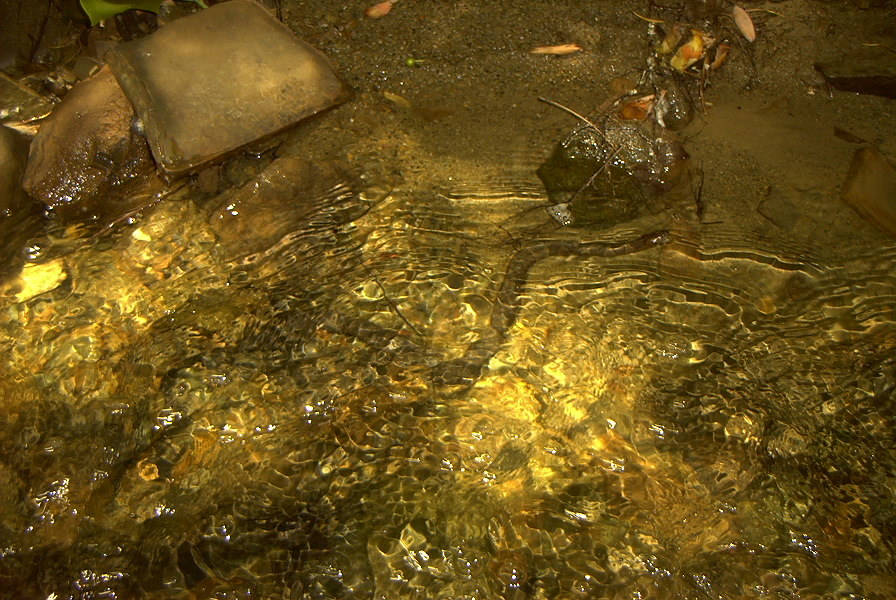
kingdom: Animalia
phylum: Chordata
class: Squamata
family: Colubridae
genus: Nerodia
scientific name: Nerodia sipedon
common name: Northern water snake
